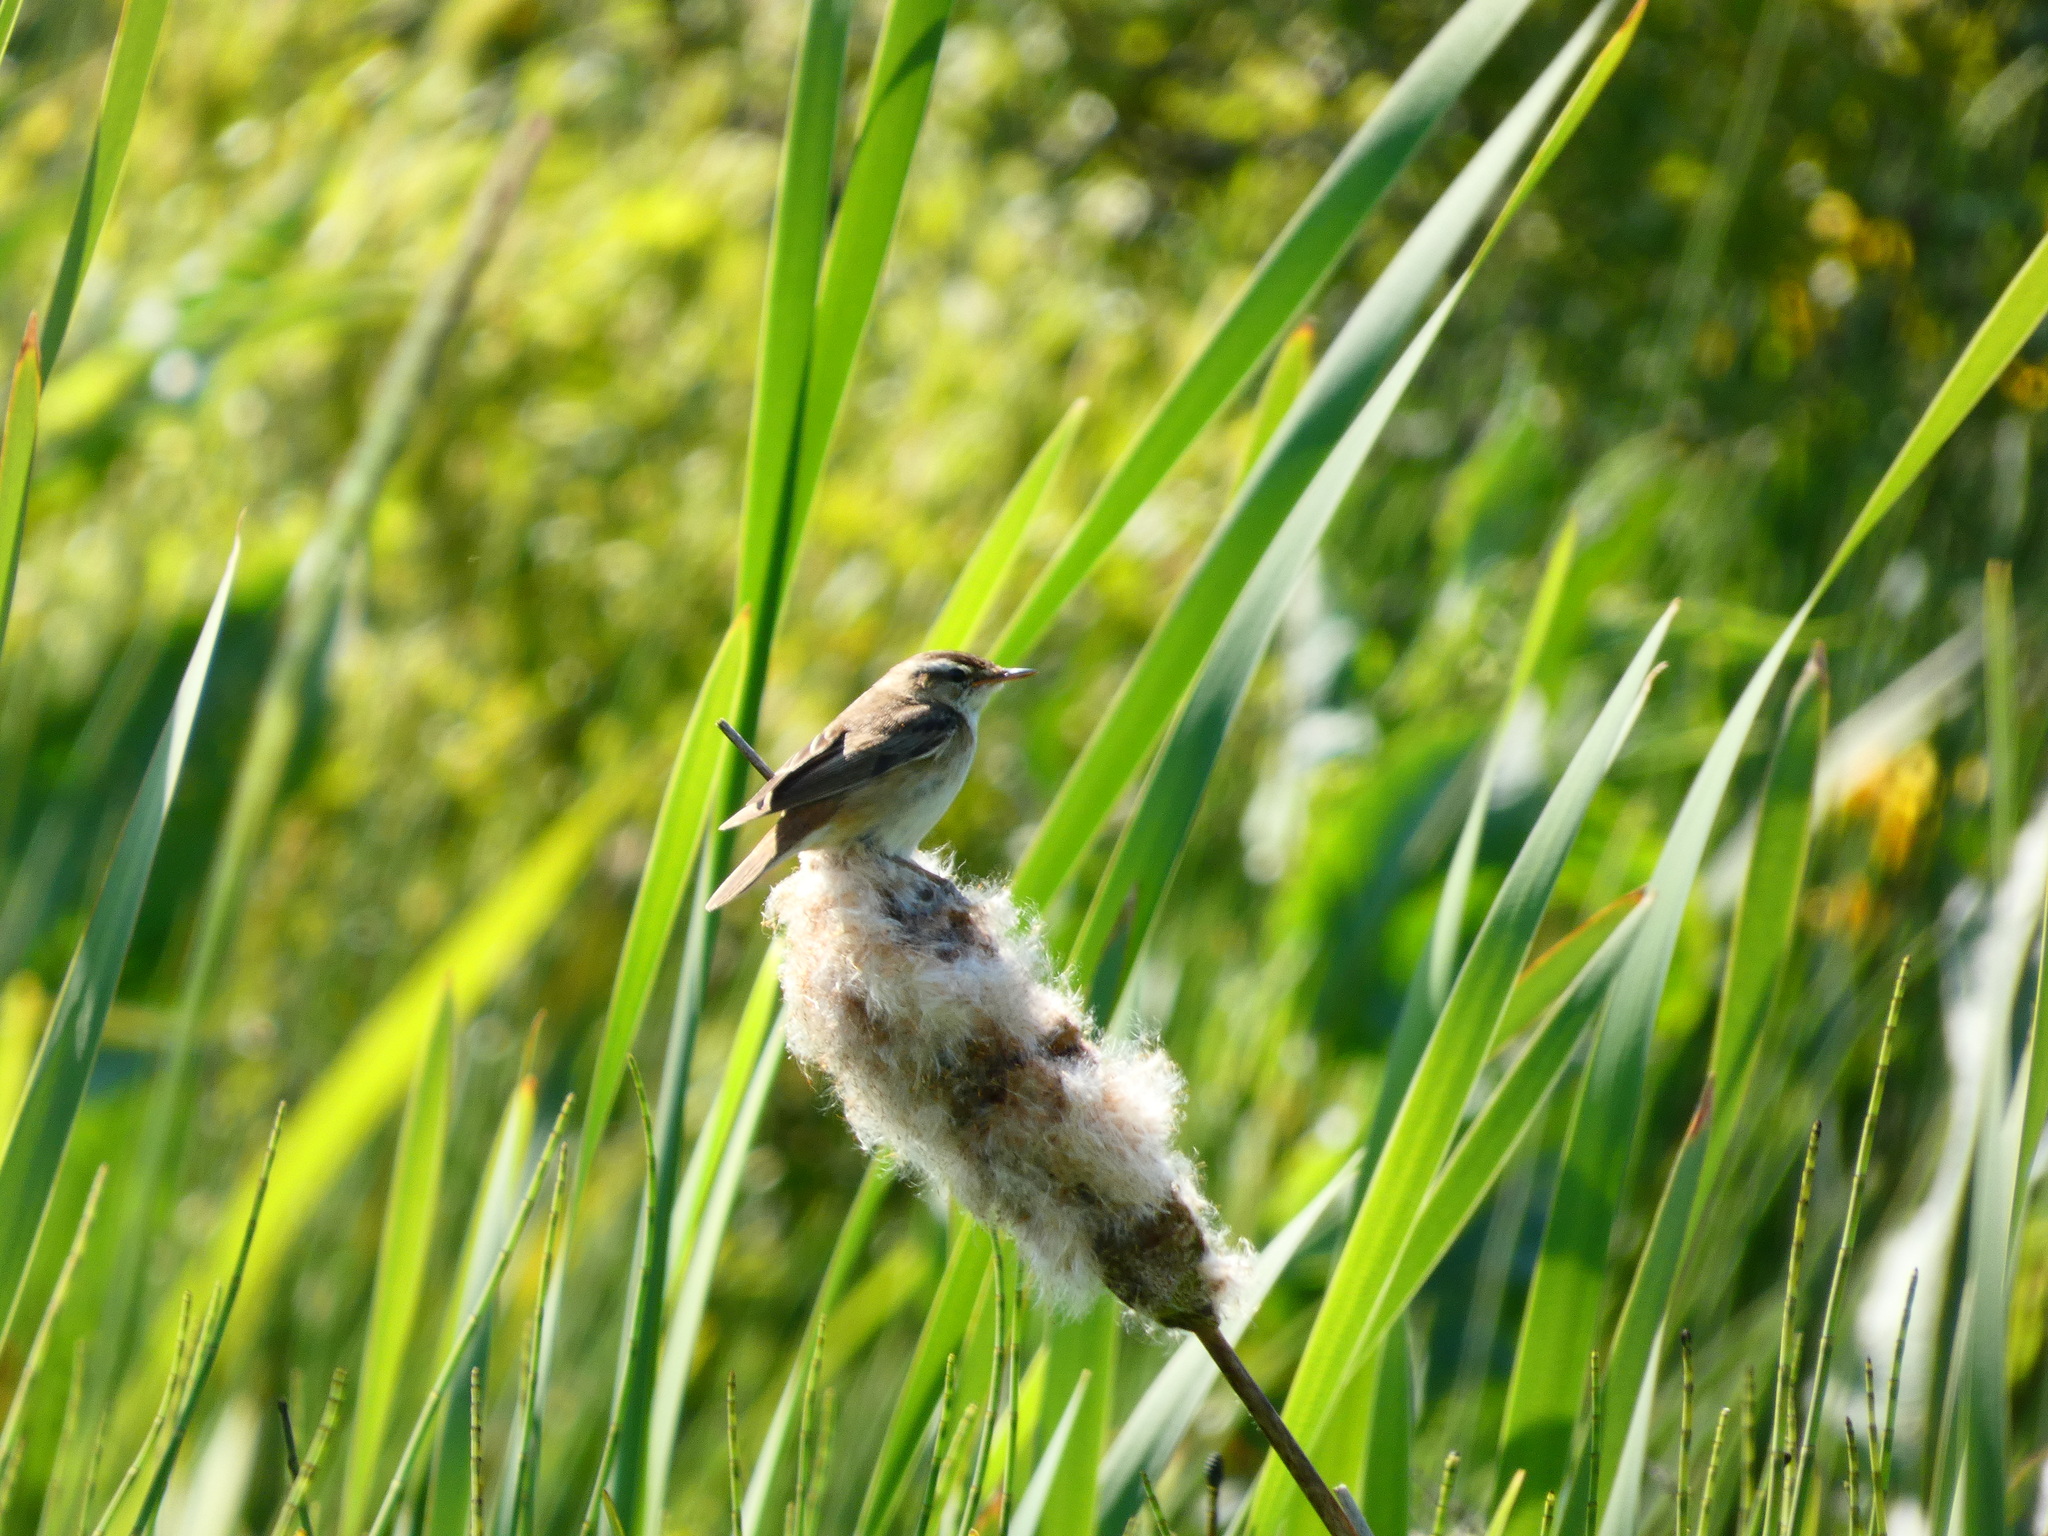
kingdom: Animalia
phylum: Chordata
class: Aves
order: Passeriformes
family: Acrocephalidae
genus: Acrocephalus
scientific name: Acrocephalus schoenobaenus
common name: Sedge warbler
